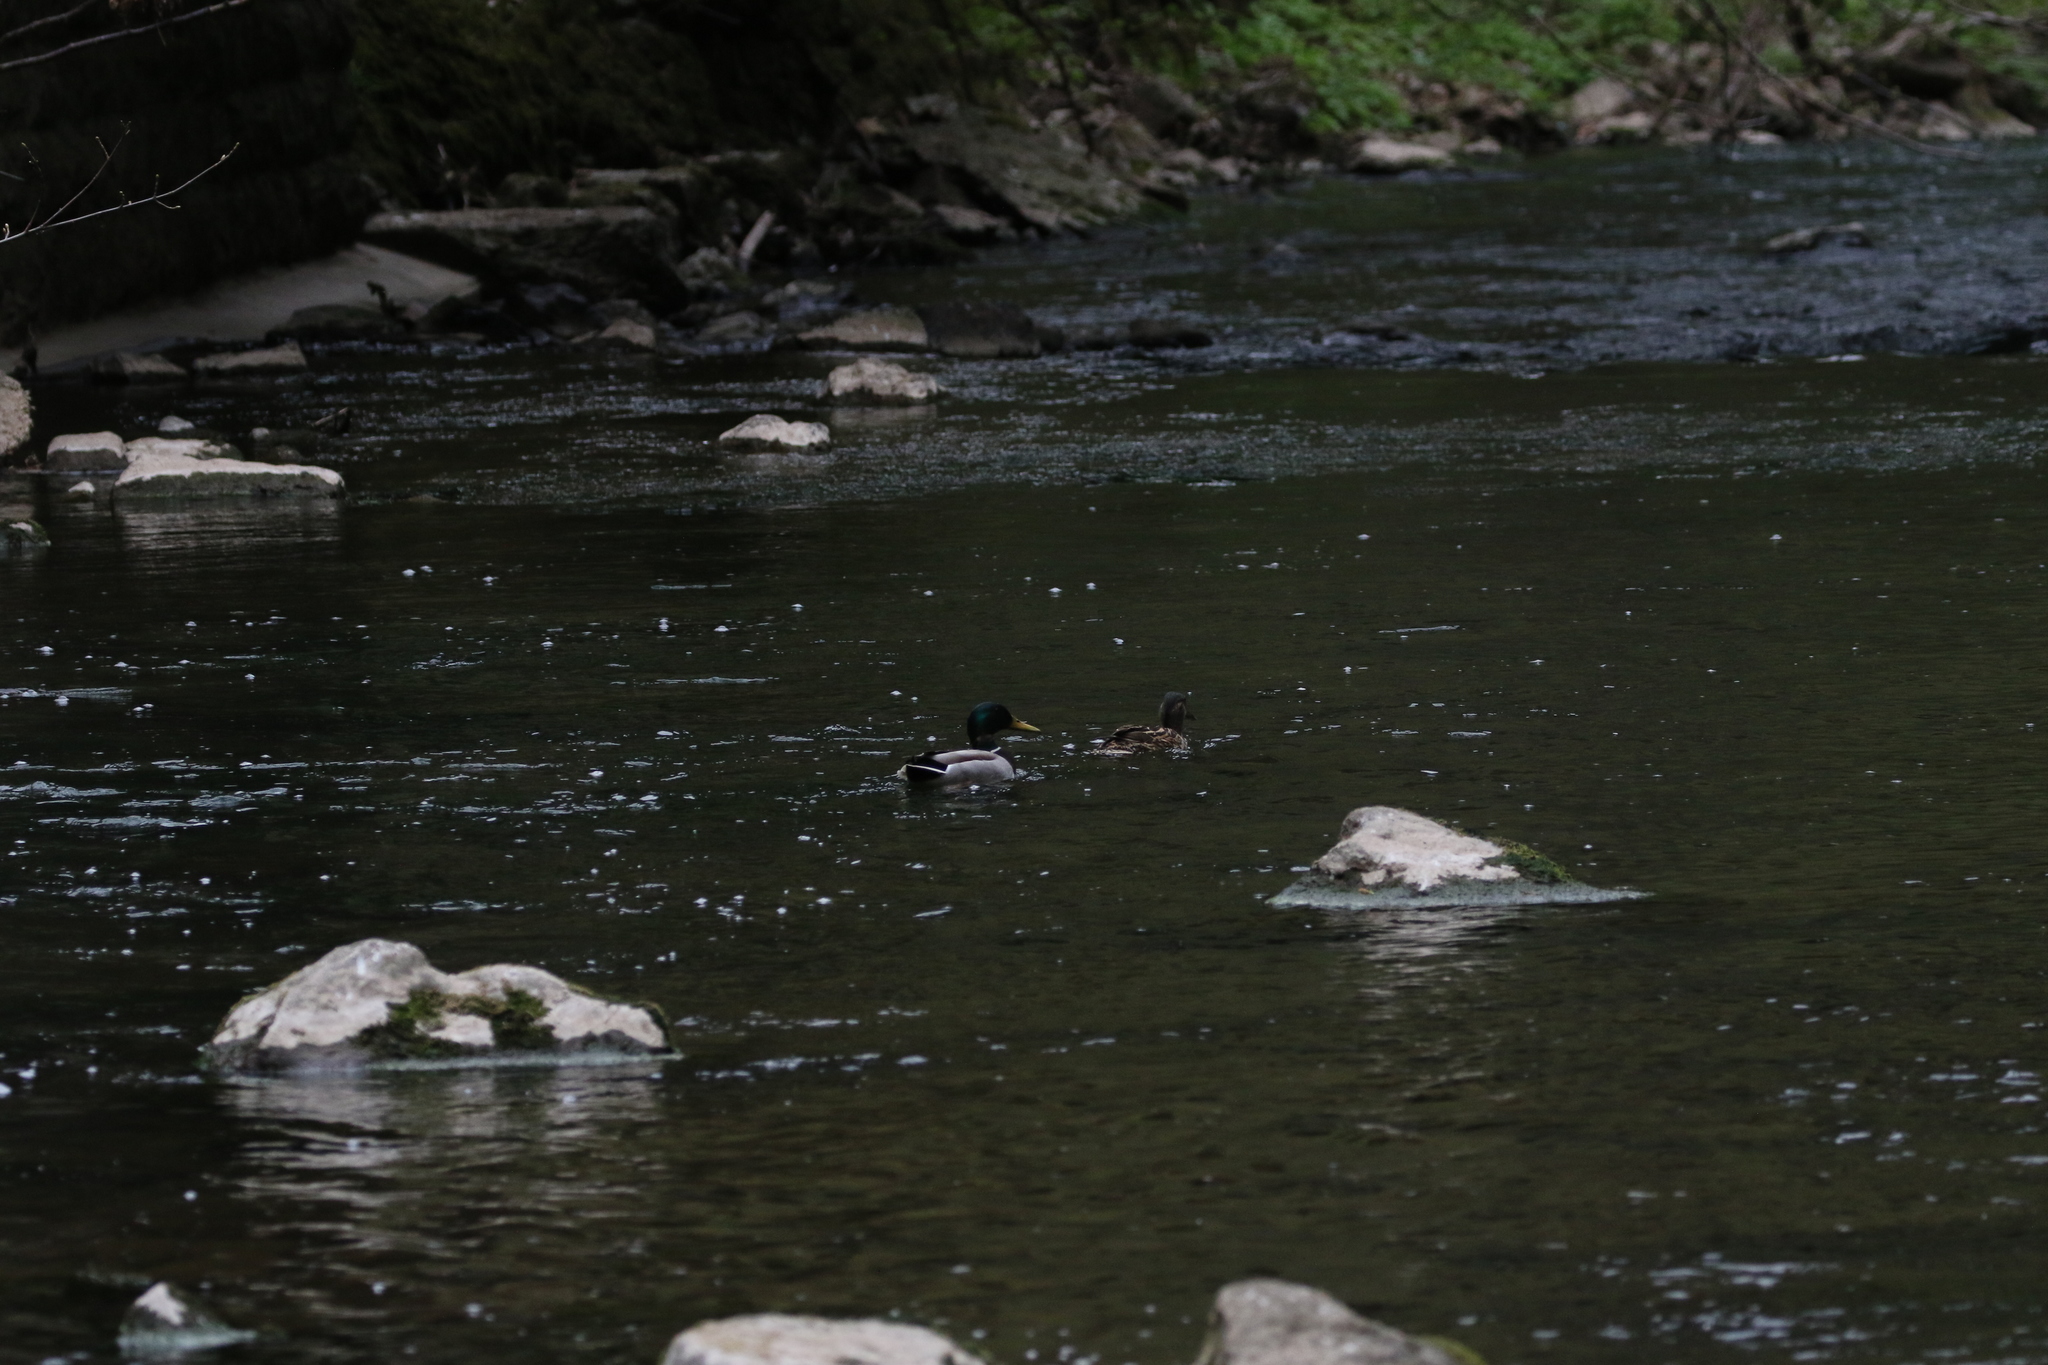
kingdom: Animalia
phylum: Chordata
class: Aves
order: Anseriformes
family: Anatidae
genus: Anas
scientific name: Anas platyrhynchos
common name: Mallard
